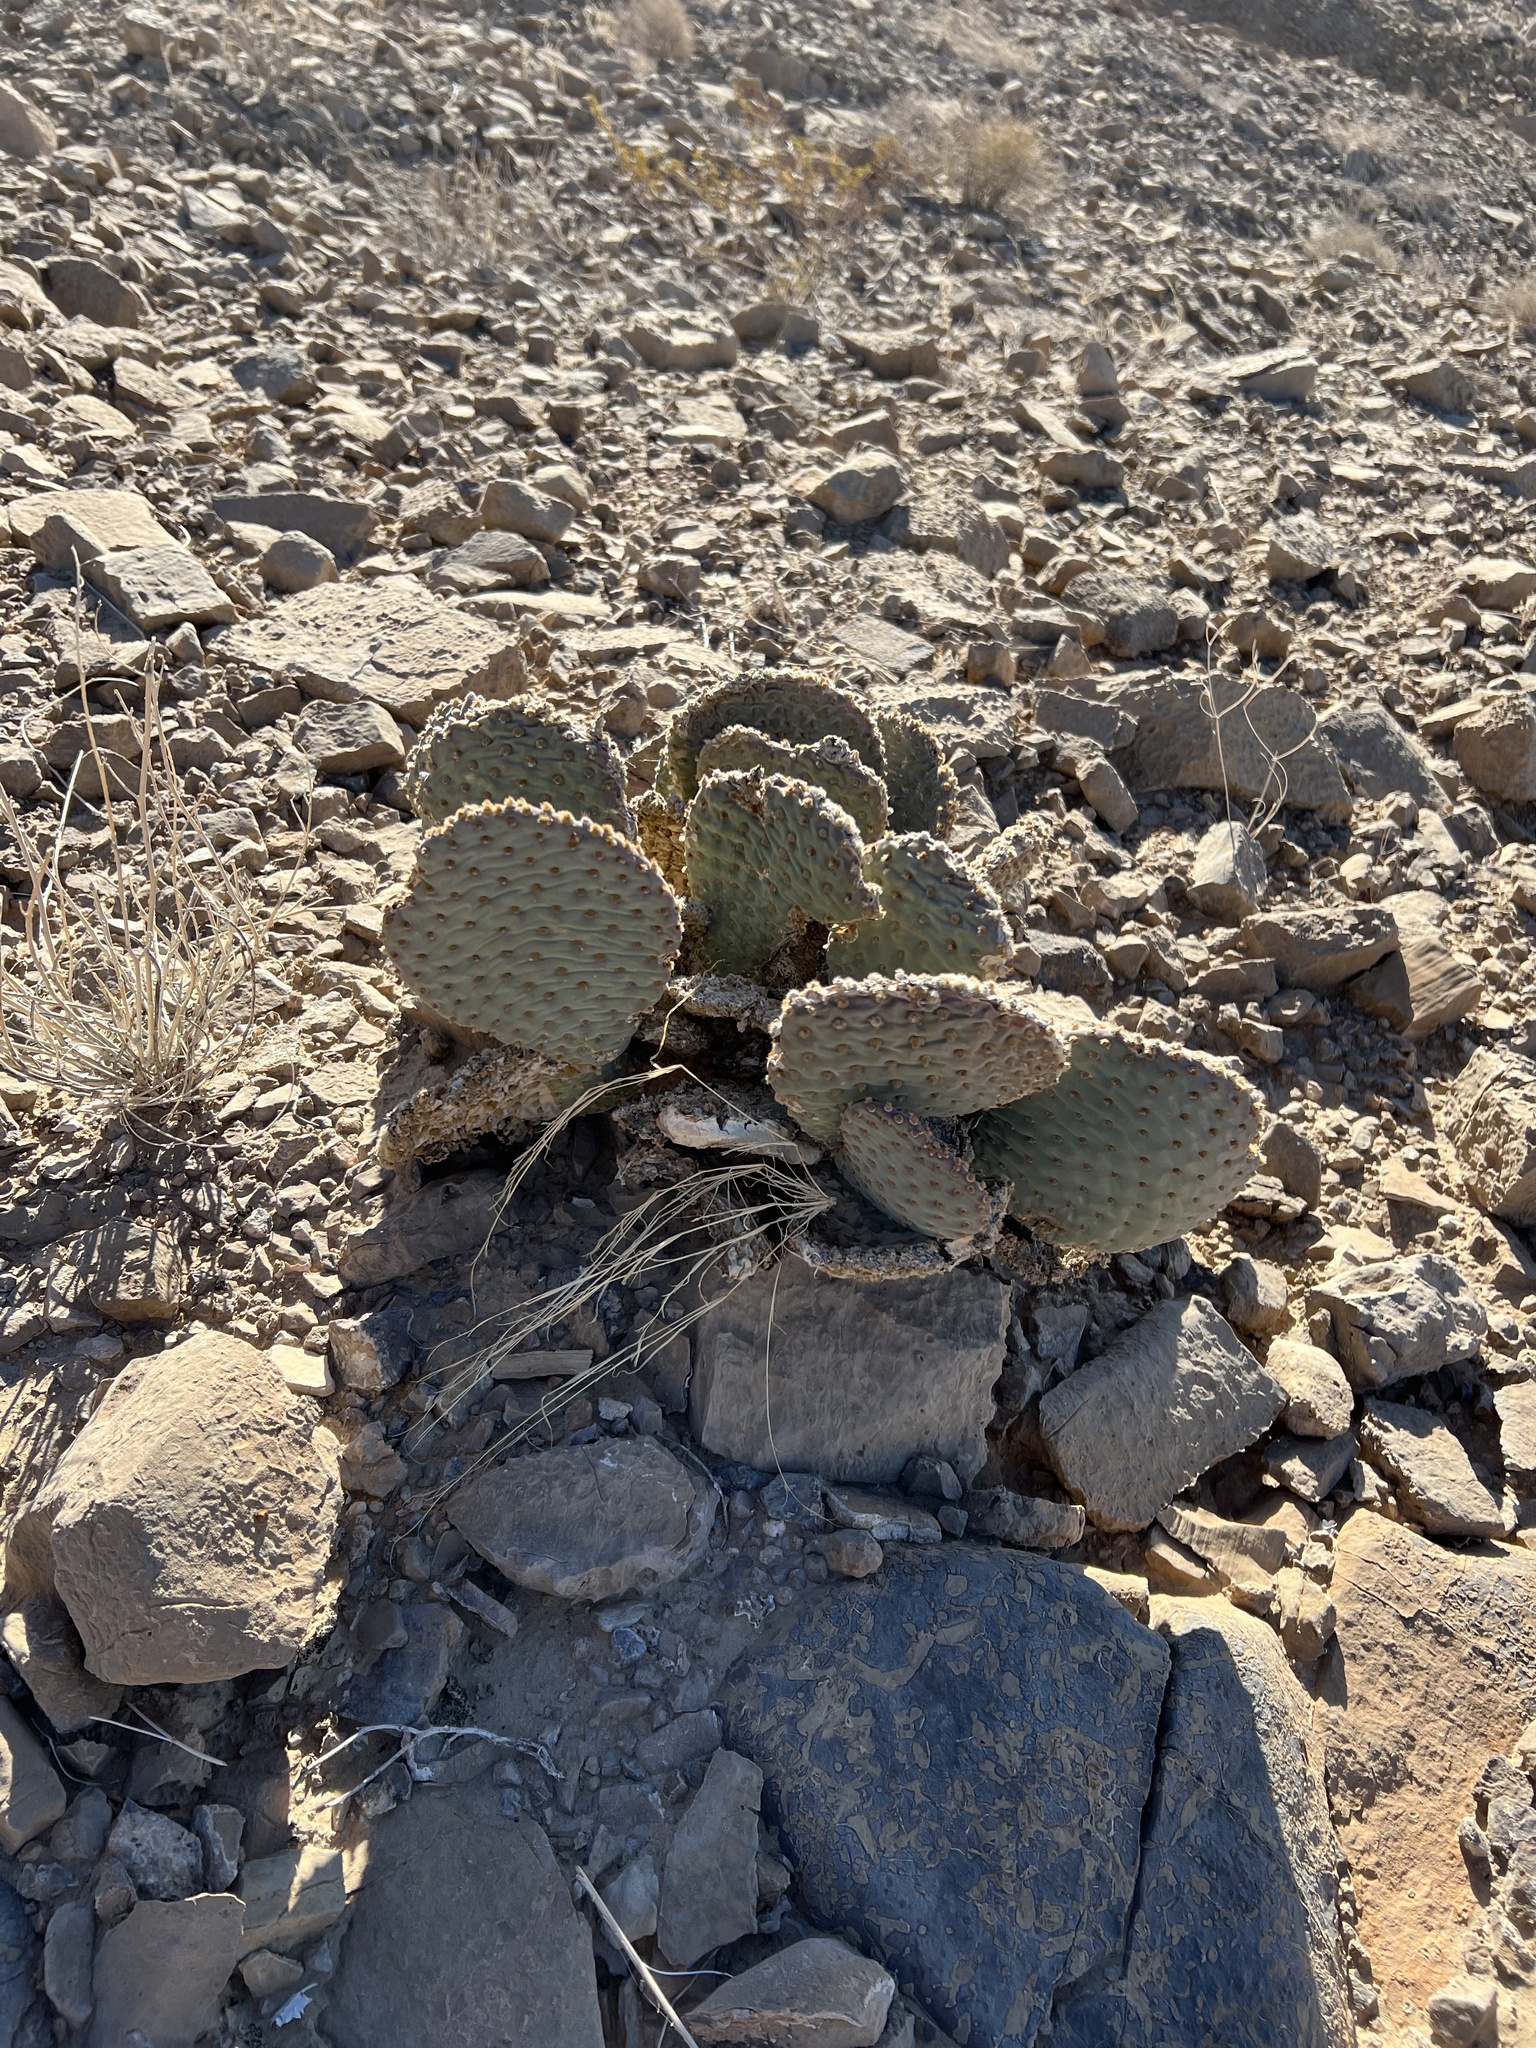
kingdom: Plantae
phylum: Tracheophyta
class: Magnoliopsida
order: Caryophyllales
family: Cactaceae
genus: Opuntia
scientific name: Opuntia basilaris
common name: Beavertail prickly-pear
